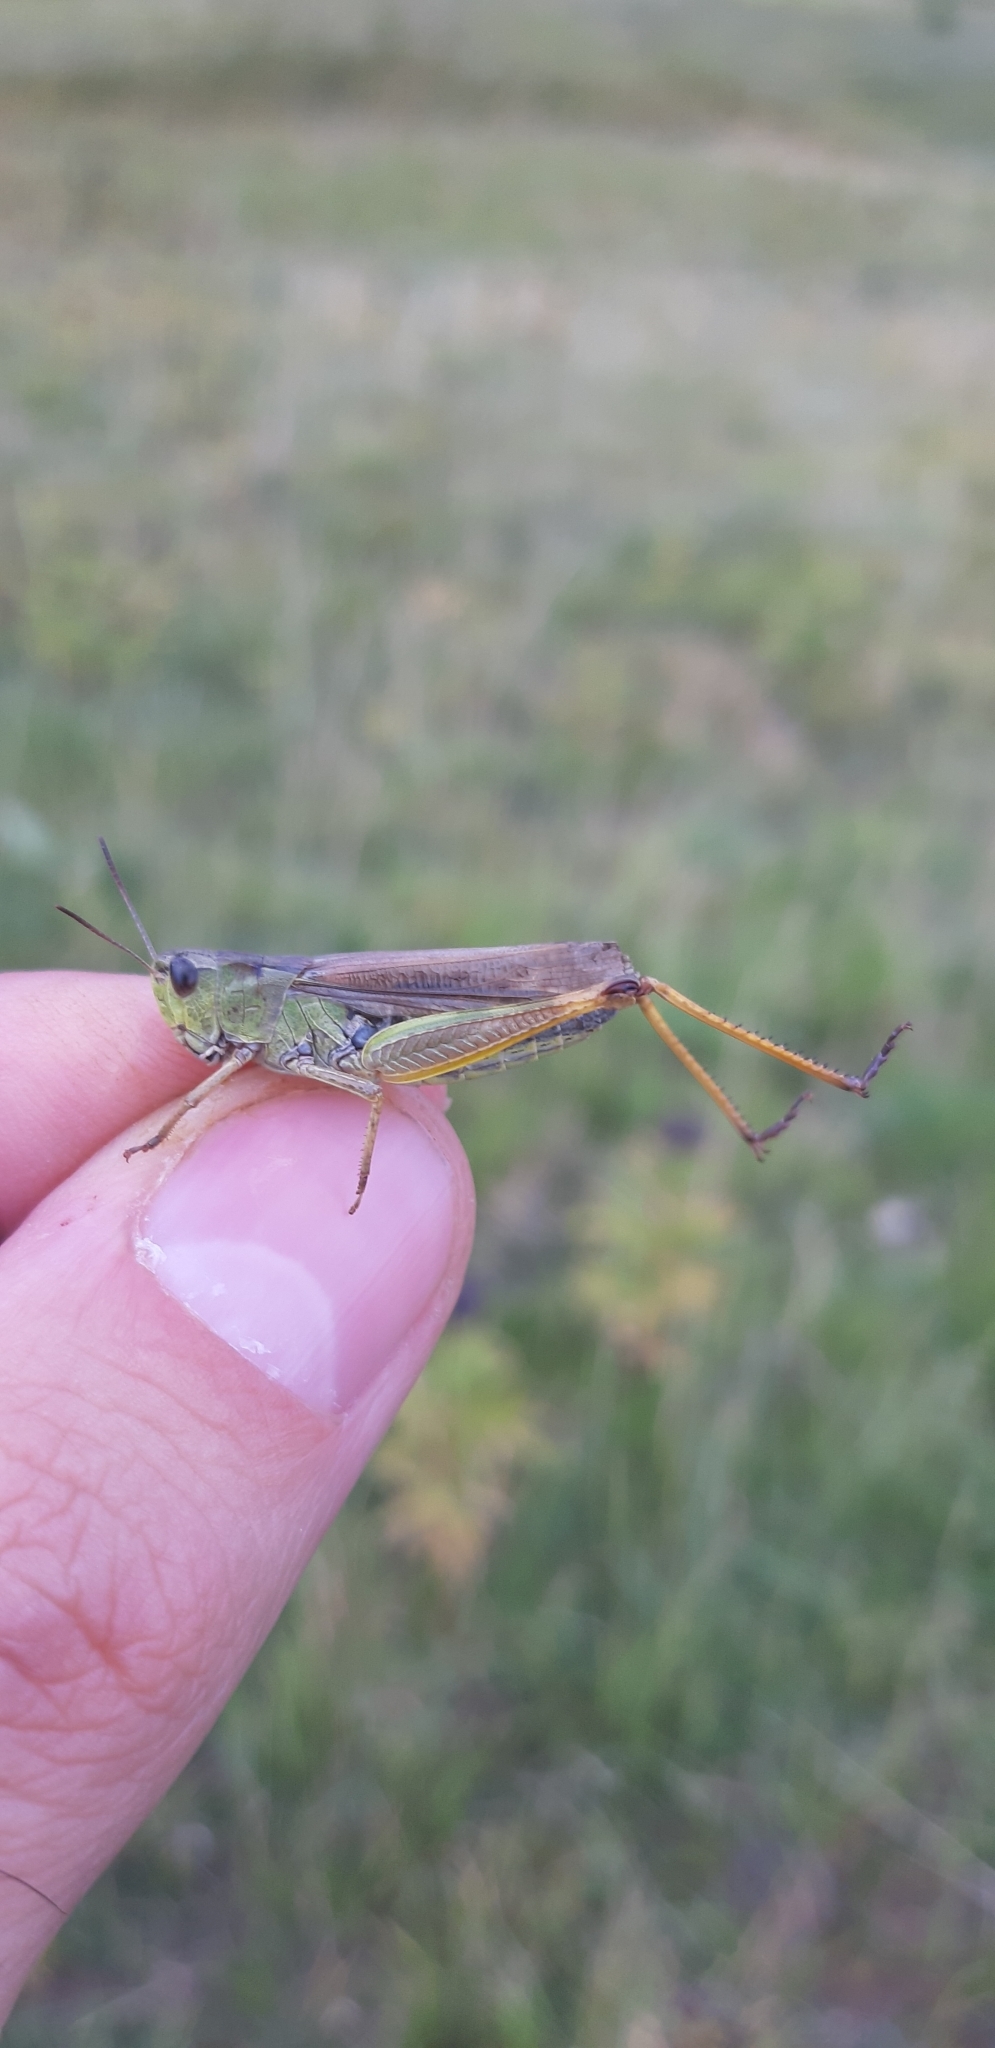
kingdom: Animalia
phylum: Arthropoda
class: Insecta
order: Orthoptera
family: Acrididae
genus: Stauroderus
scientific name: Stauroderus scalaris
